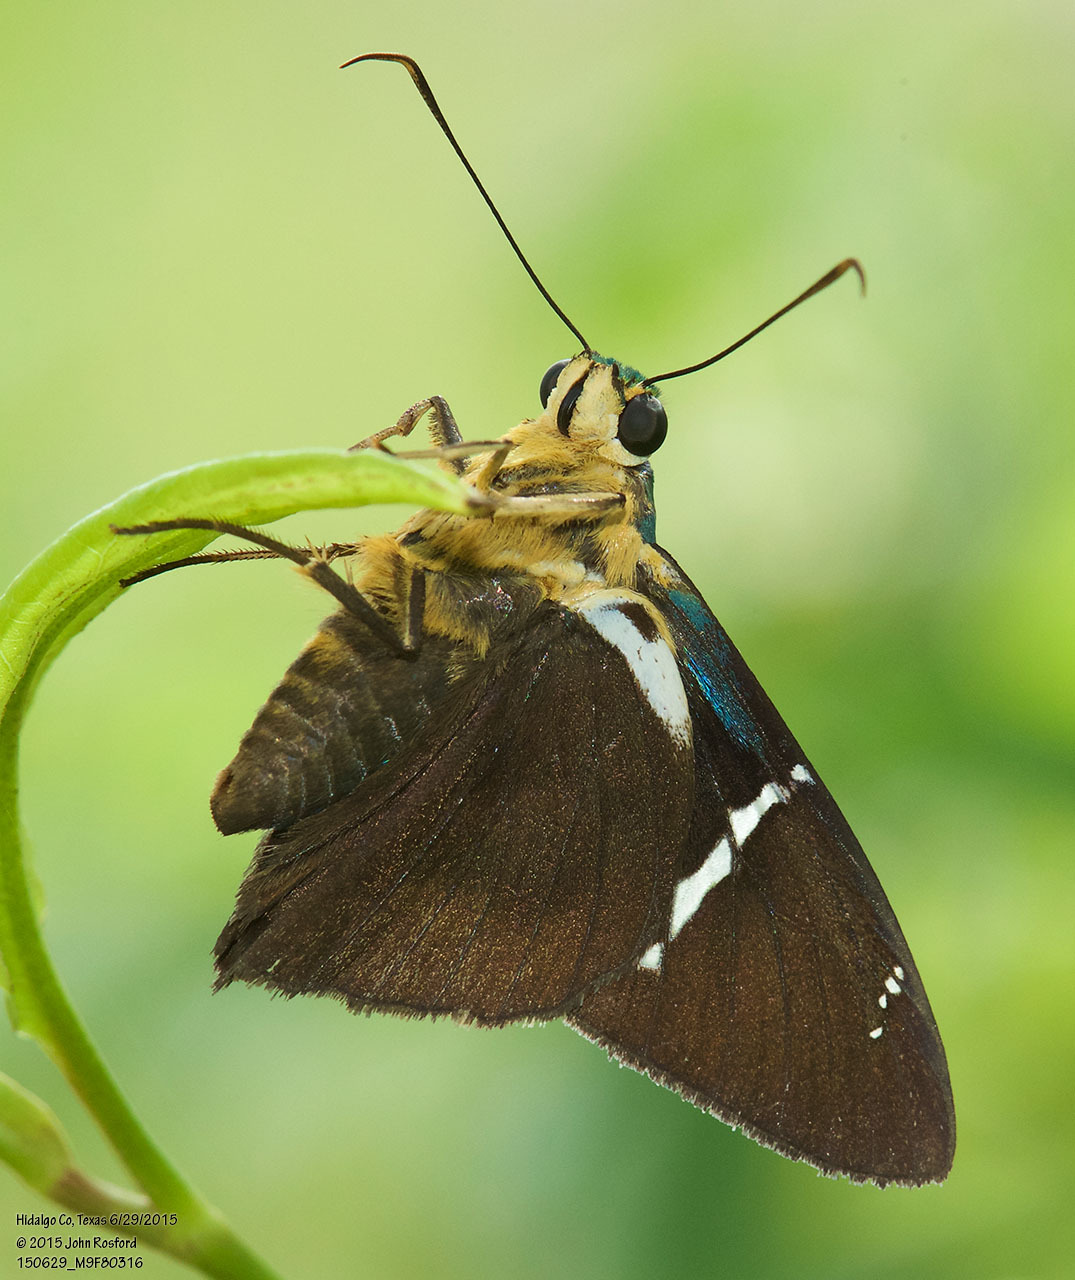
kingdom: Animalia
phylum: Arthropoda
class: Insecta
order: Lepidoptera
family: Hesperiidae
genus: Astraptes
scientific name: Astraptes fulgerator
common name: Two-barred flasher
